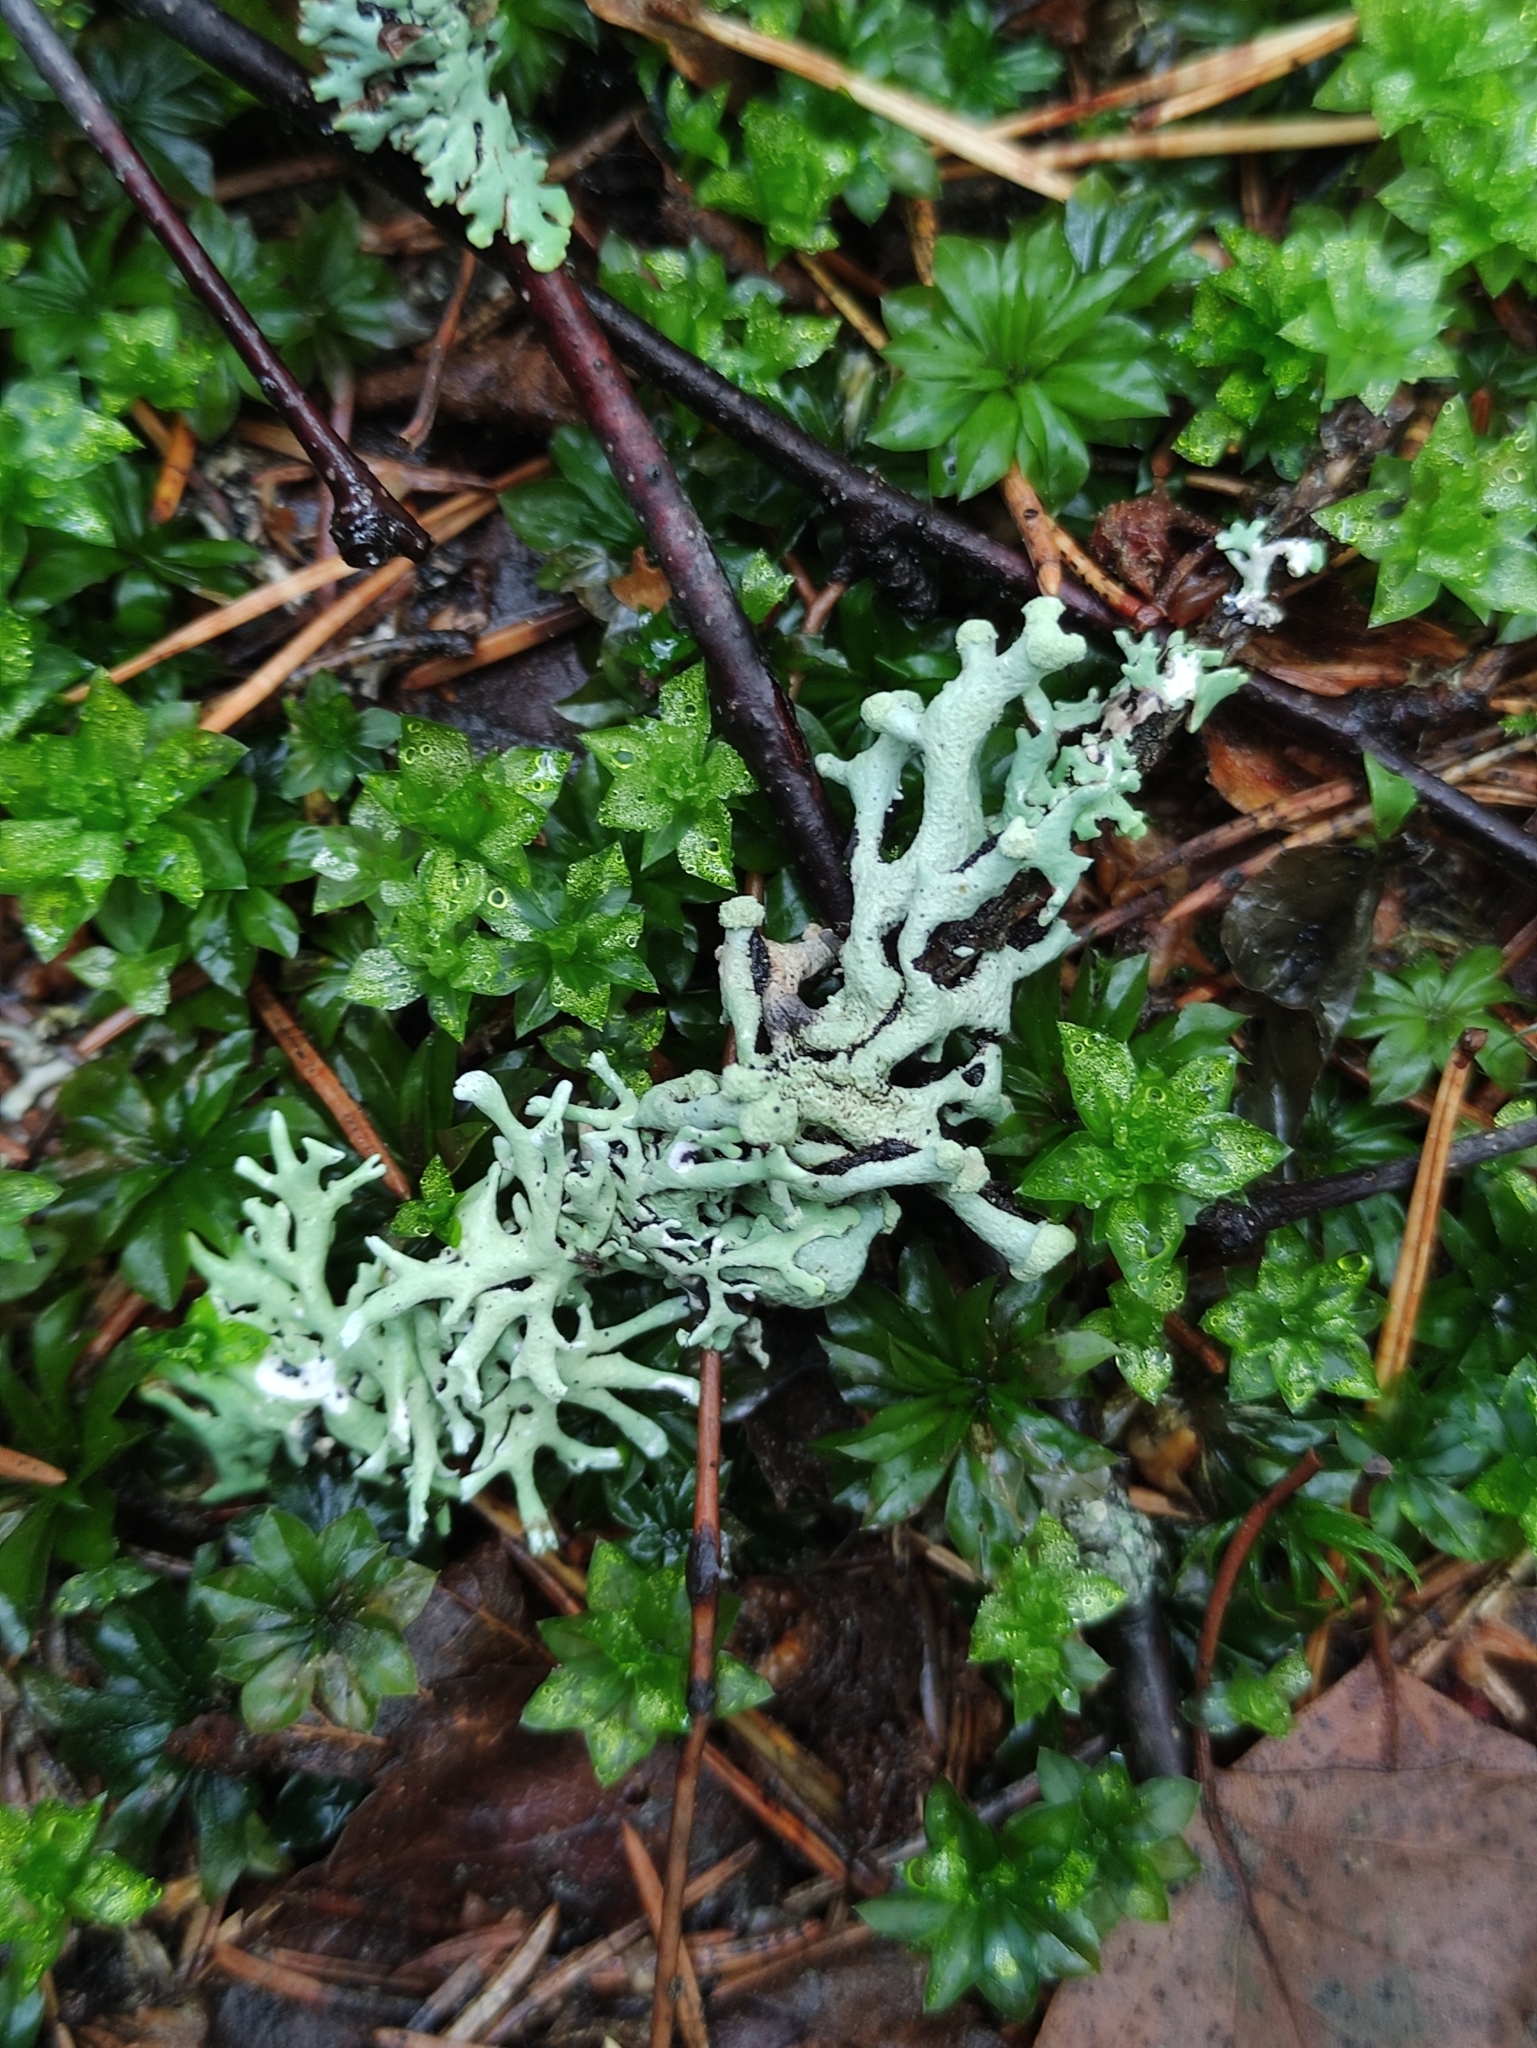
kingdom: Fungi
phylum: Ascomycota
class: Lecanoromycetes
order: Lecanorales
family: Parmeliaceae
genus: Hypogymnia
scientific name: Hypogymnia tubulosa
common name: Powder-headed tube lichen
